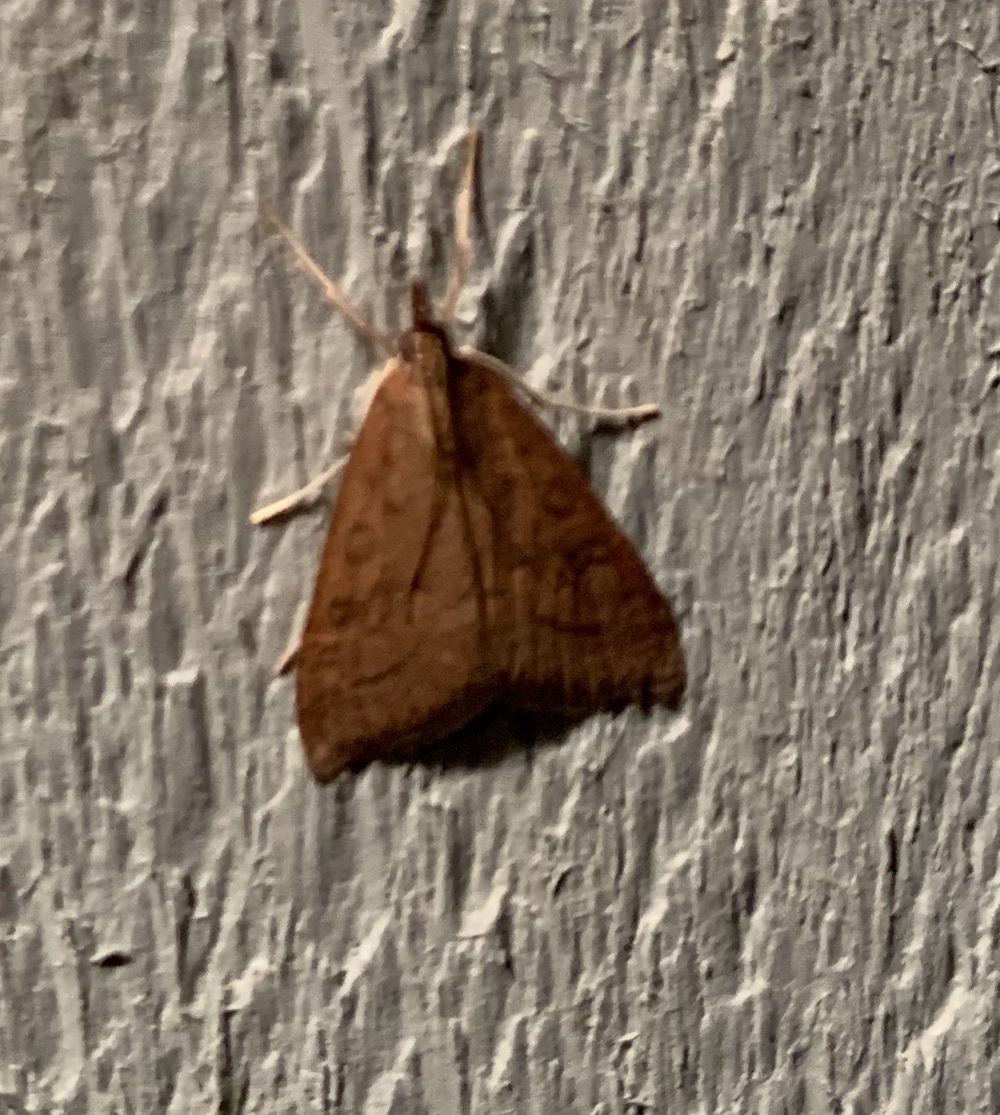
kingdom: Animalia
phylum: Arthropoda
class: Insecta
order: Lepidoptera
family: Crambidae
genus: Udea
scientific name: Udea rubigalis
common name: Celery leaftier moth
